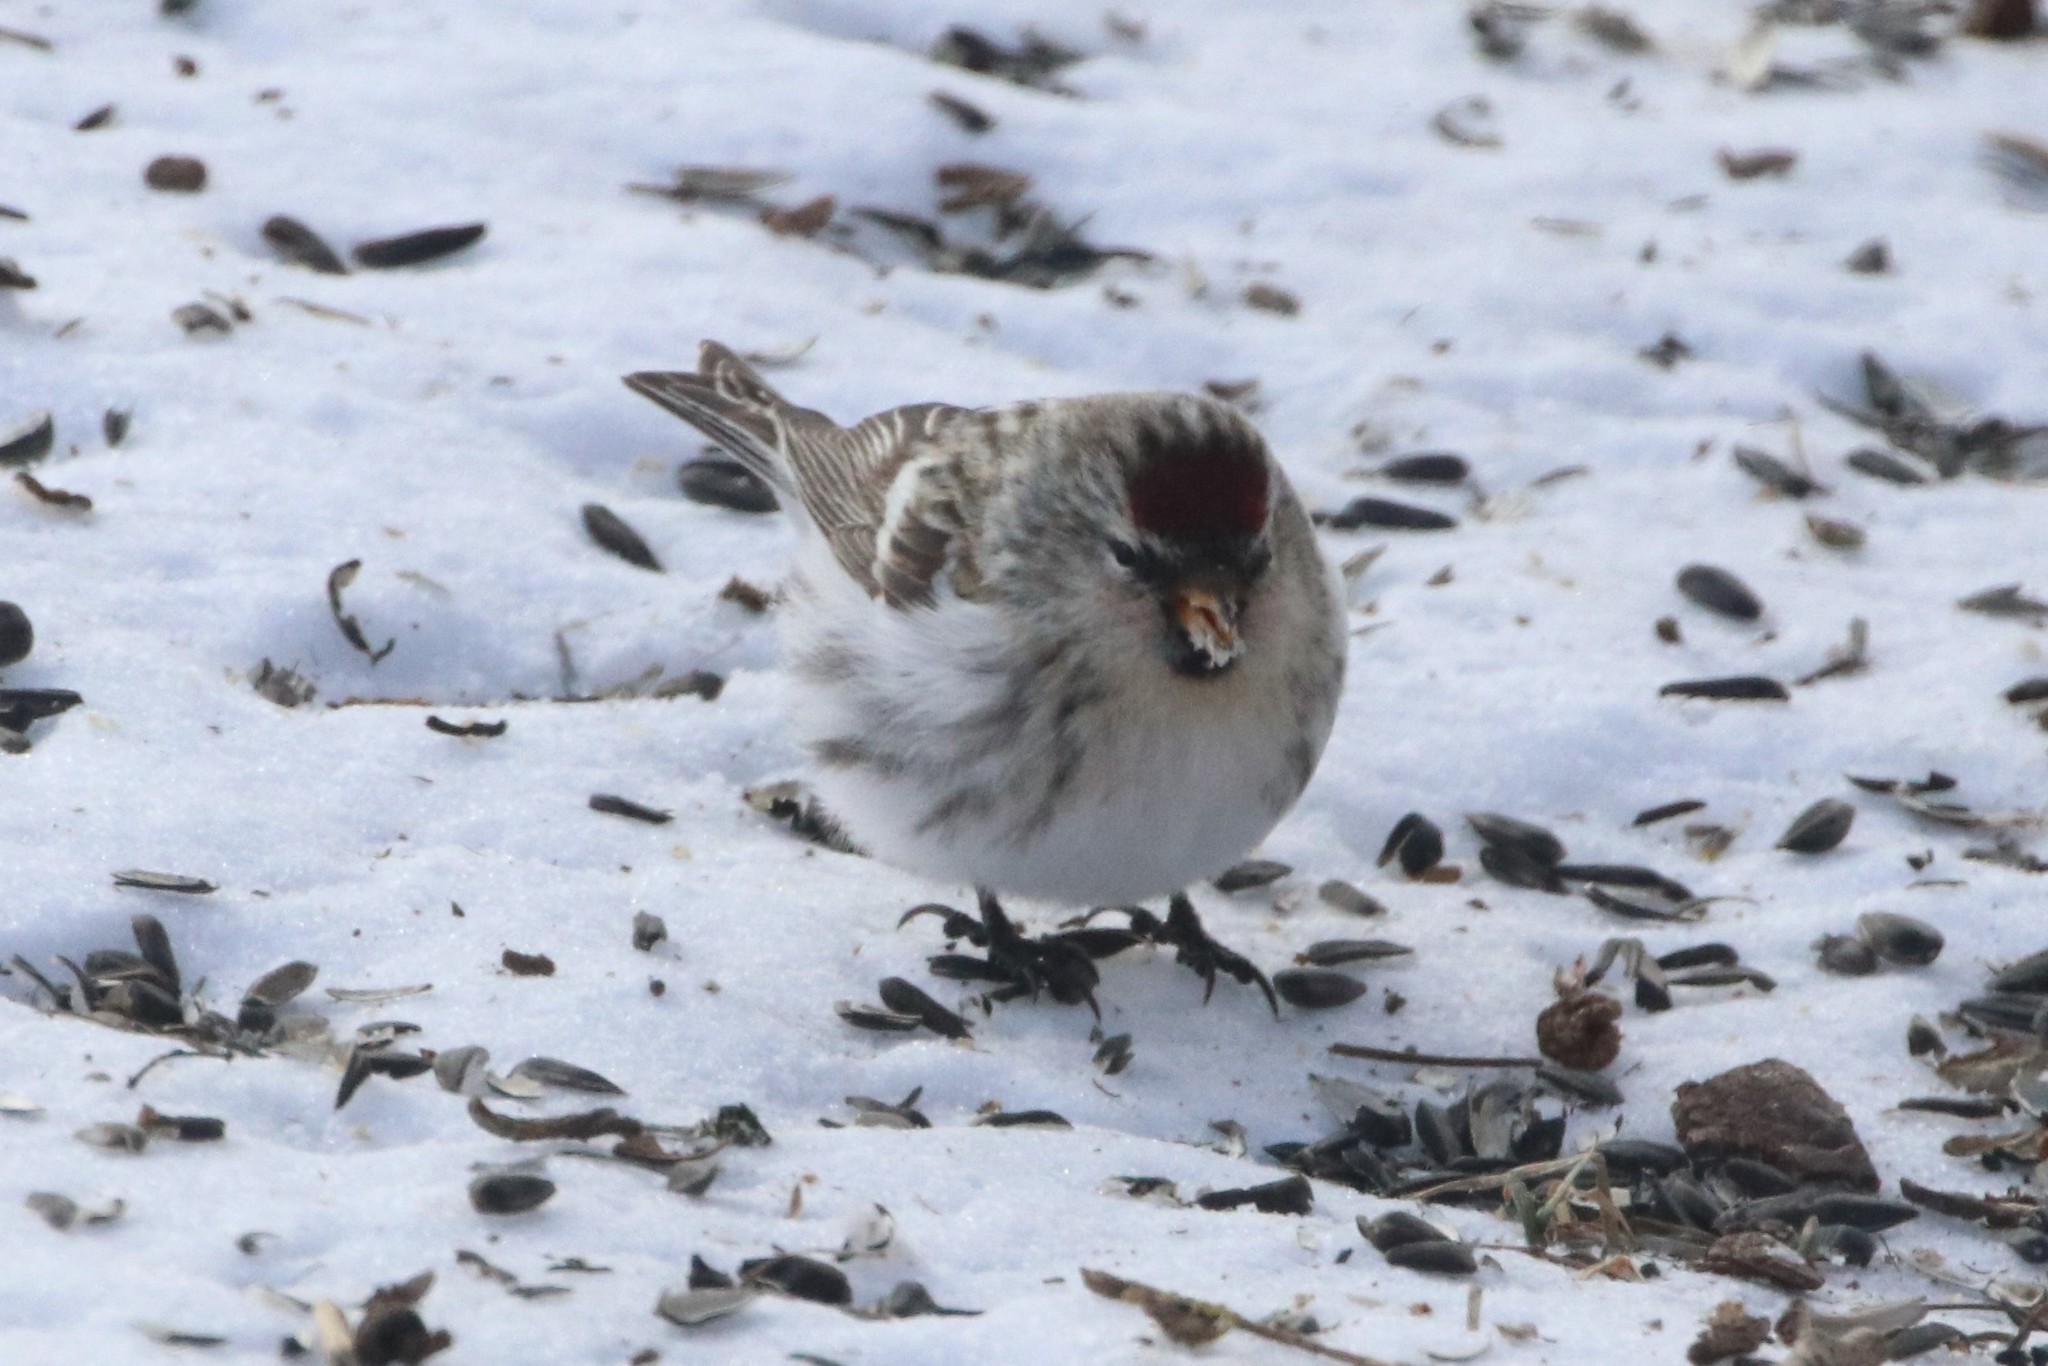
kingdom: Animalia
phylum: Chordata
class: Aves
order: Passeriformes
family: Fringillidae
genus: Acanthis
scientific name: Acanthis flammea
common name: Common redpoll
